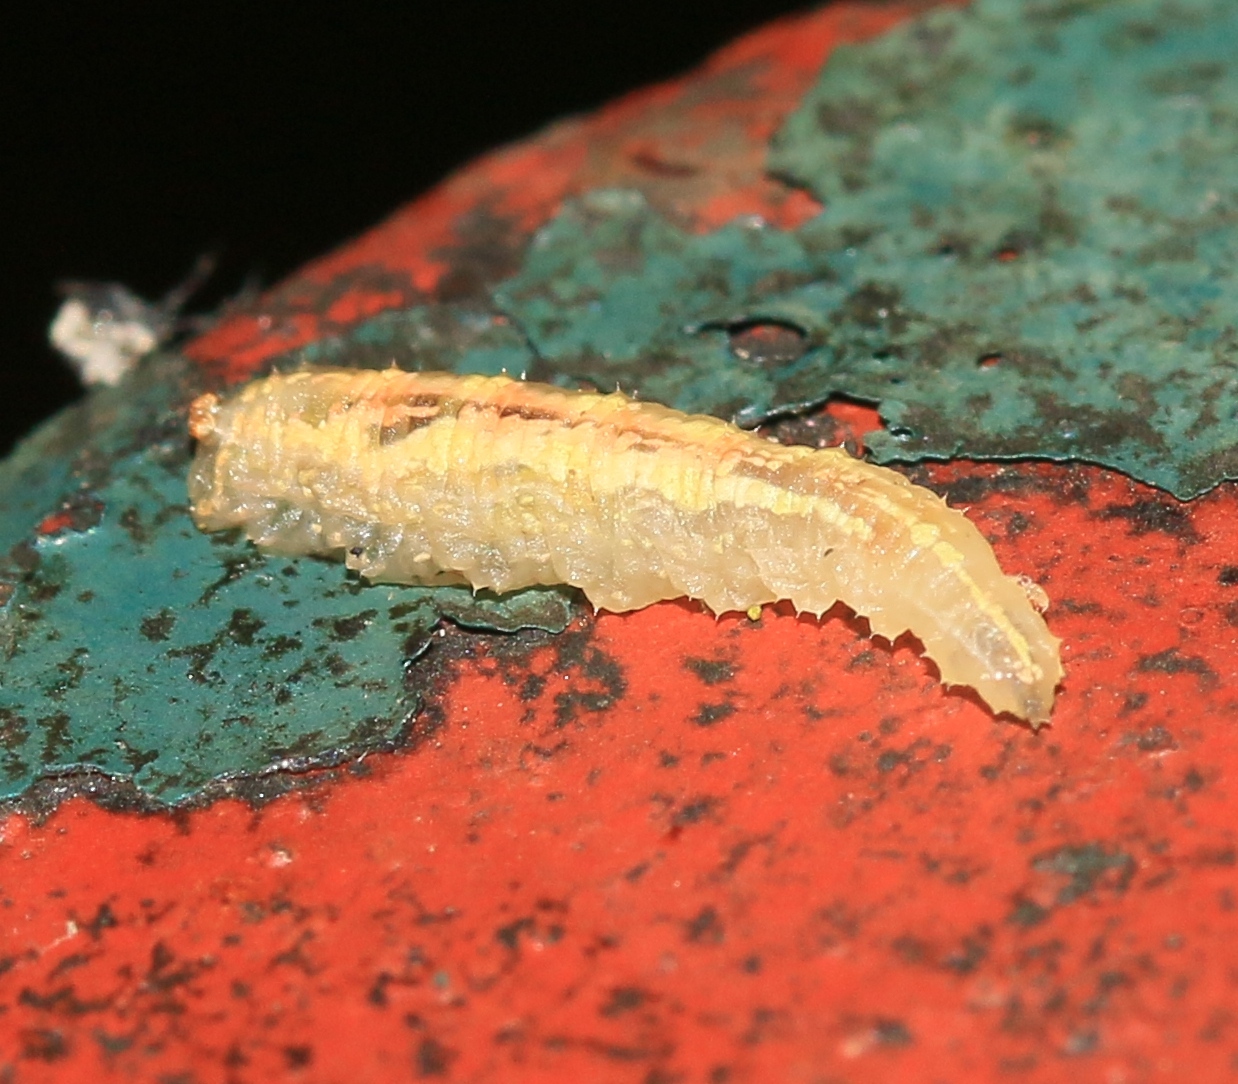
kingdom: Animalia
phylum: Arthropoda
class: Insecta
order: Diptera
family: Syrphidae
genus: Syrphus
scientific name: Syrphus
